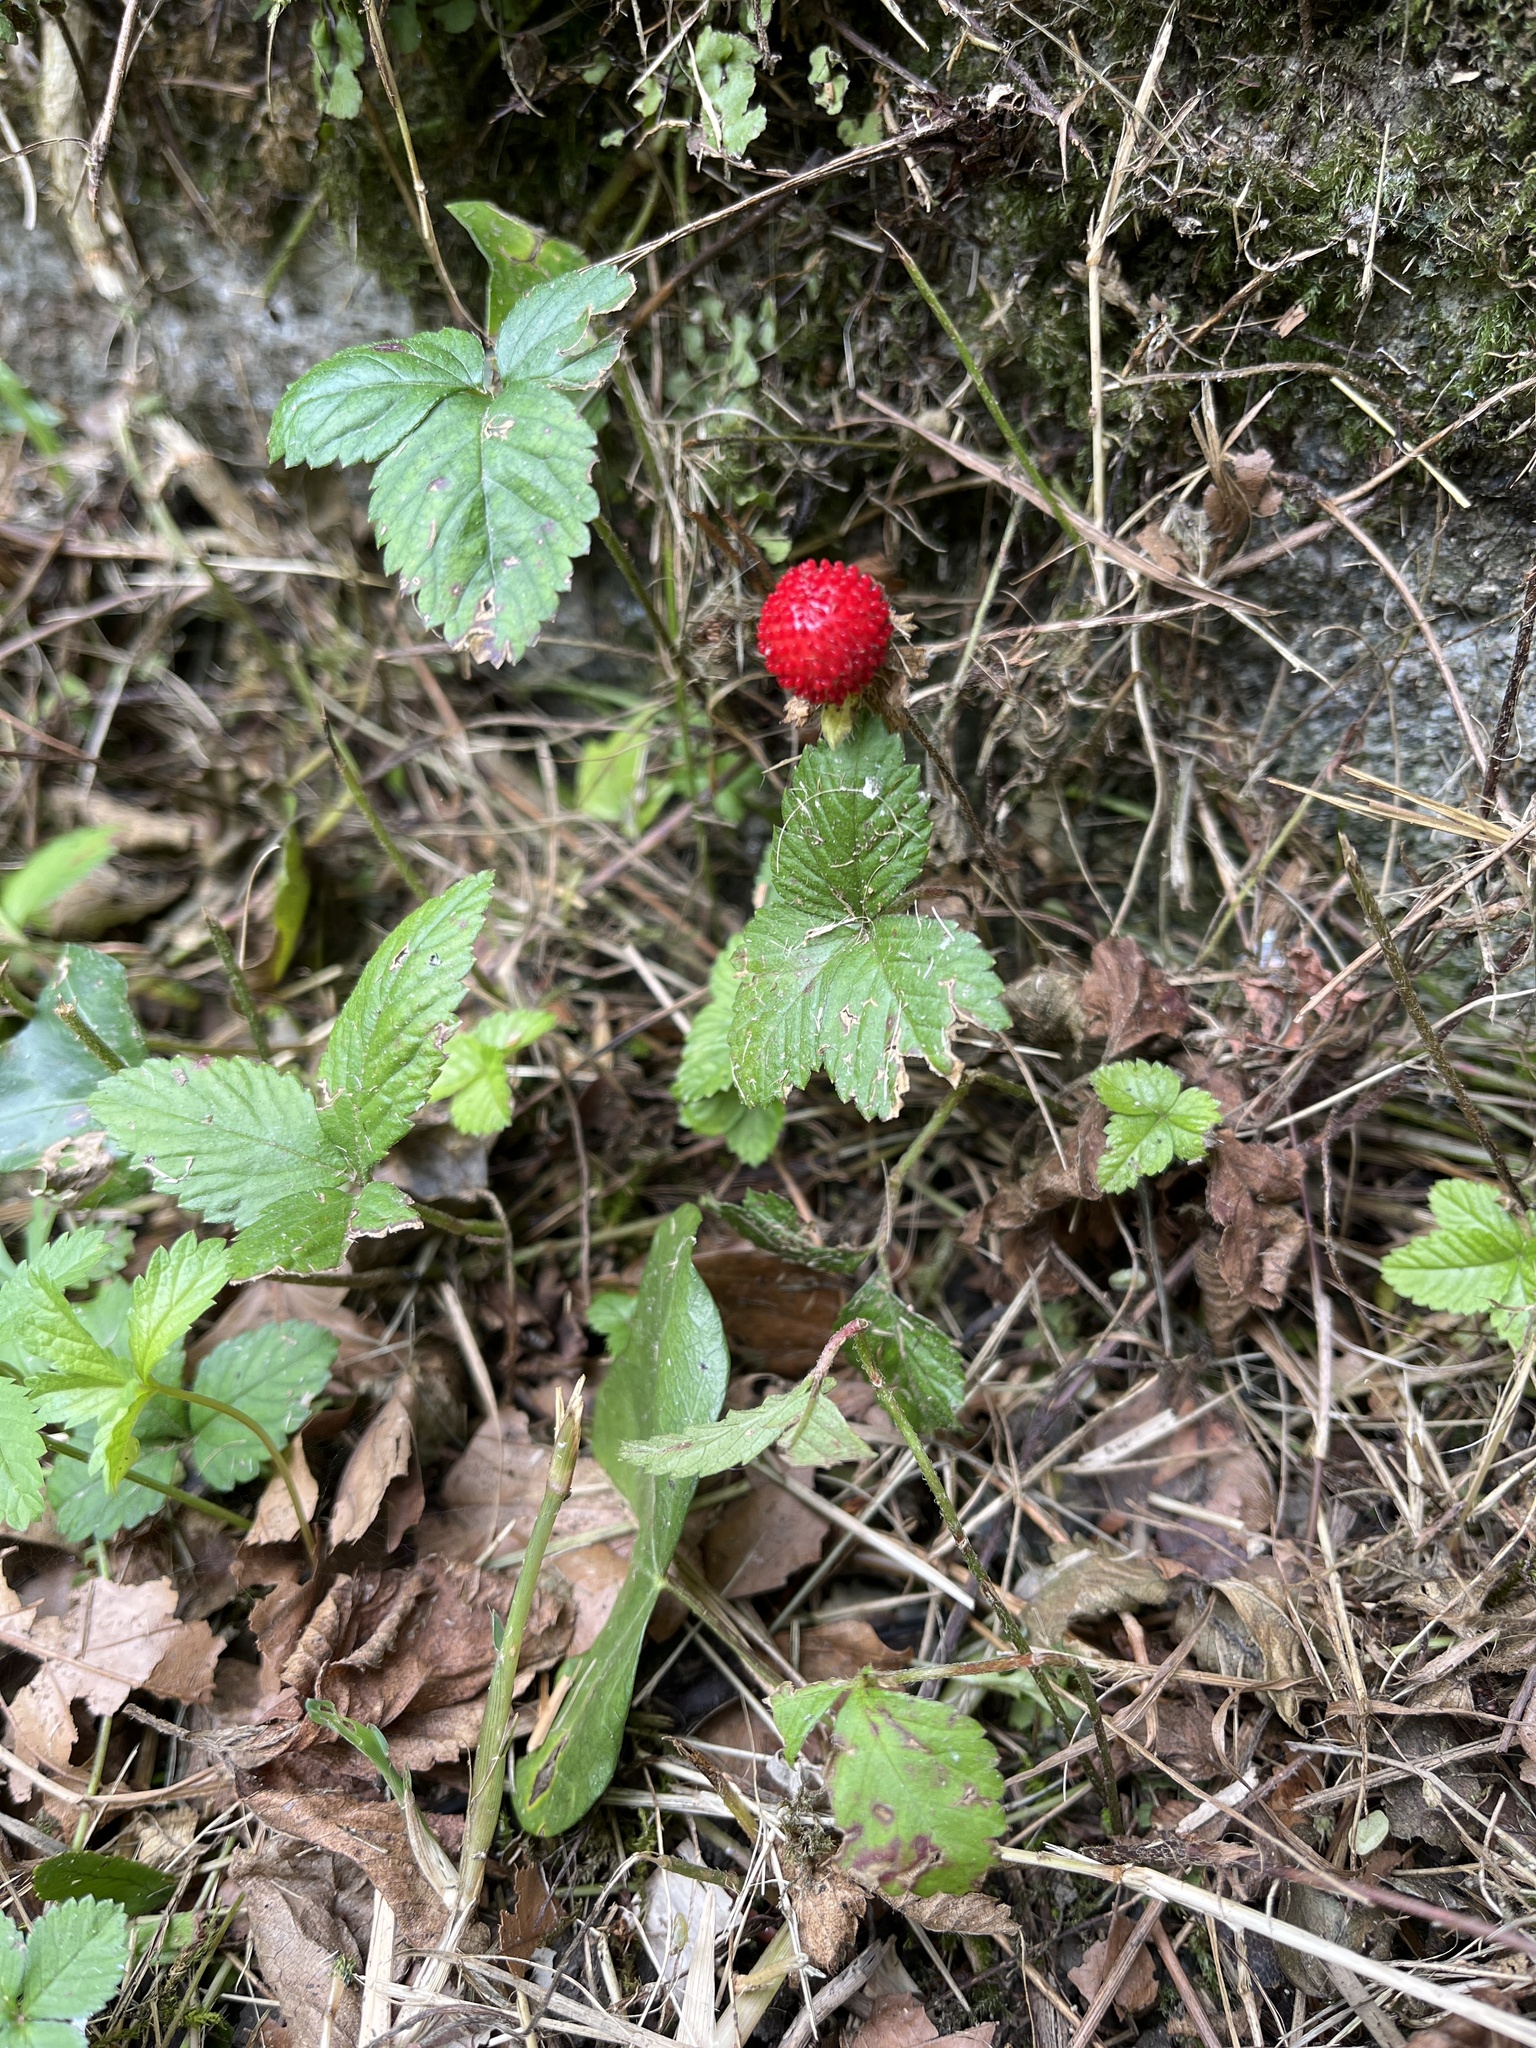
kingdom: Plantae
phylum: Tracheophyta
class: Magnoliopsida
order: Rosales
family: Rosaceae
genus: Potentilla
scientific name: Potentilla indica
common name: Yellow-flowered strawberry
